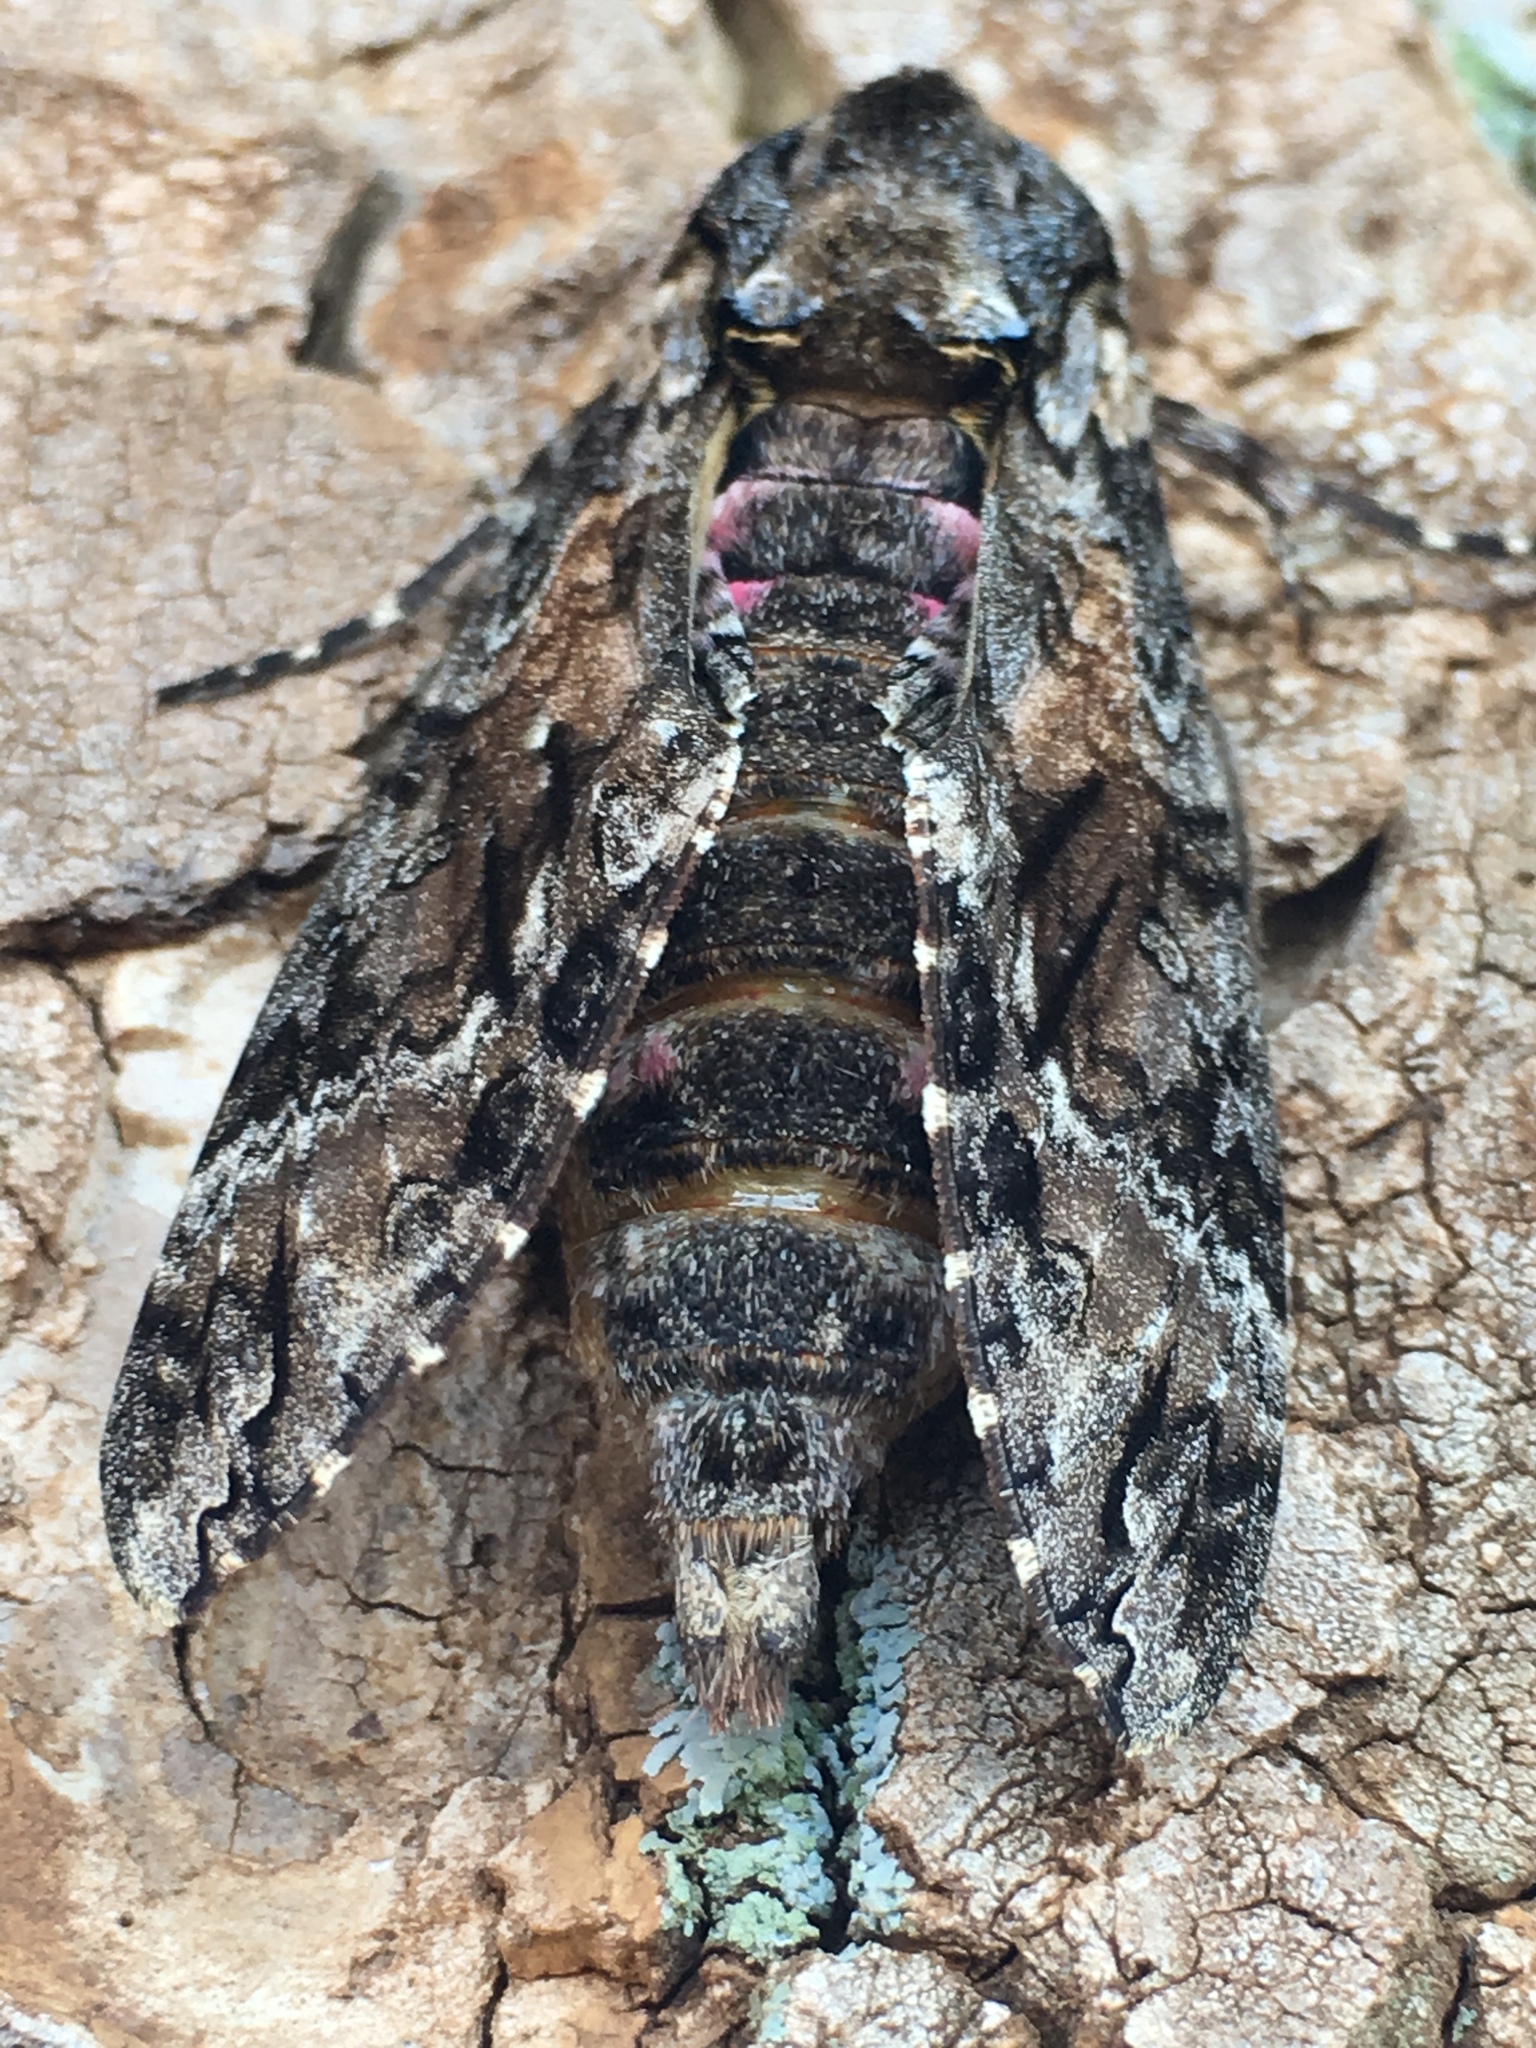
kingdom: Animalia
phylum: Arthropoda
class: Insecta
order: Lepidoptera
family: Sphingidae
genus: Agrius
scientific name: Agrius cingulata
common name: Pink-spotted hawkmoth
